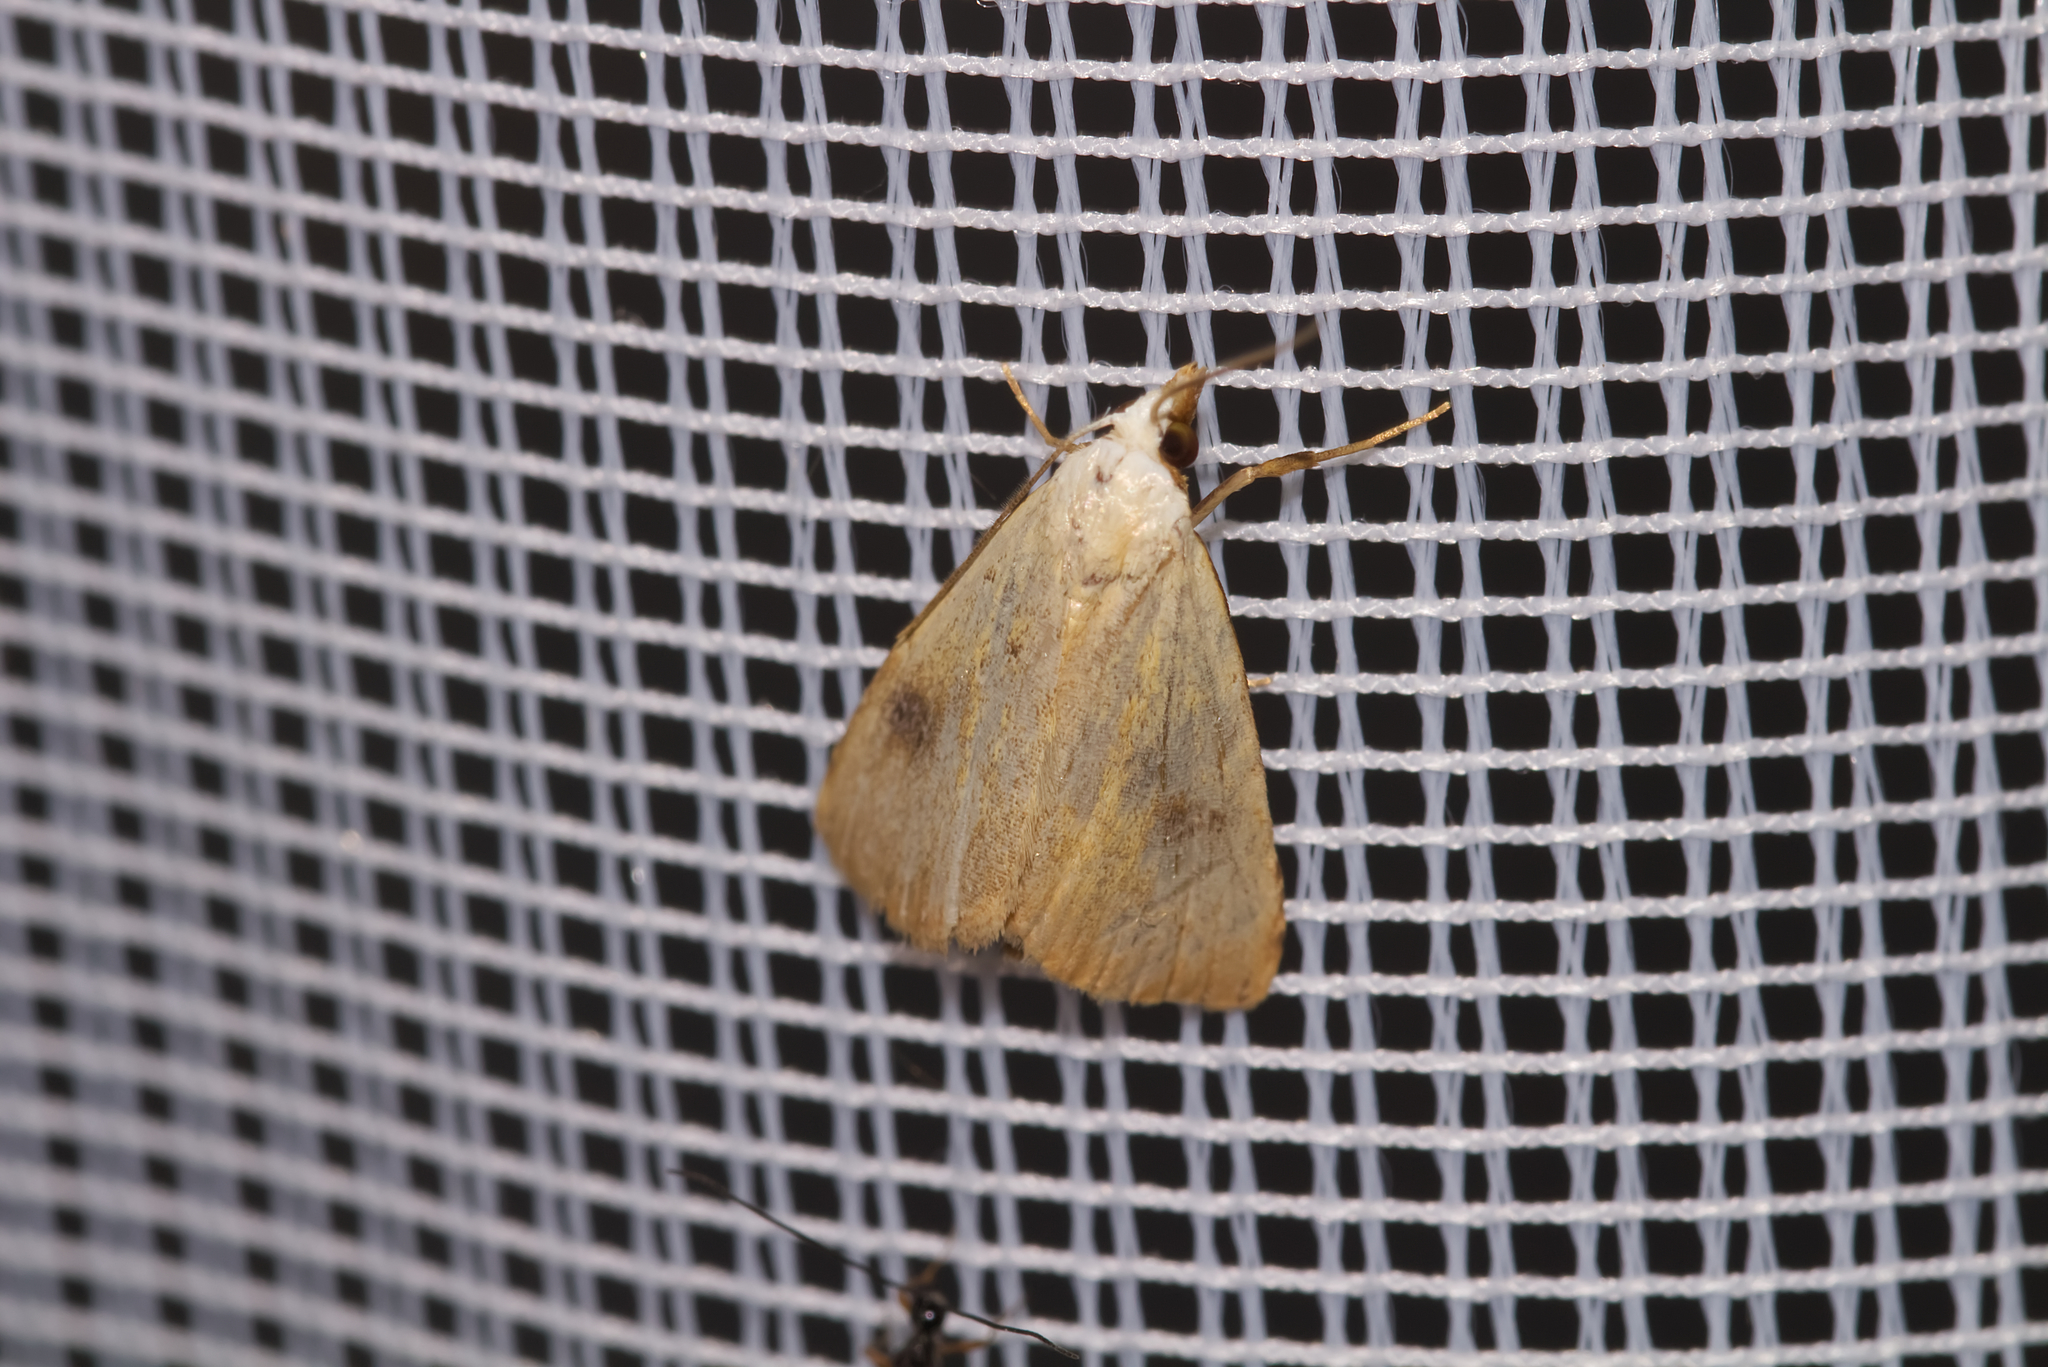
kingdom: Animalia
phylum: Arthropoda
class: Insecta
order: Lepidoptera
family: Erebidae
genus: Rivula
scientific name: Rivula sericealis
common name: Straw dot
